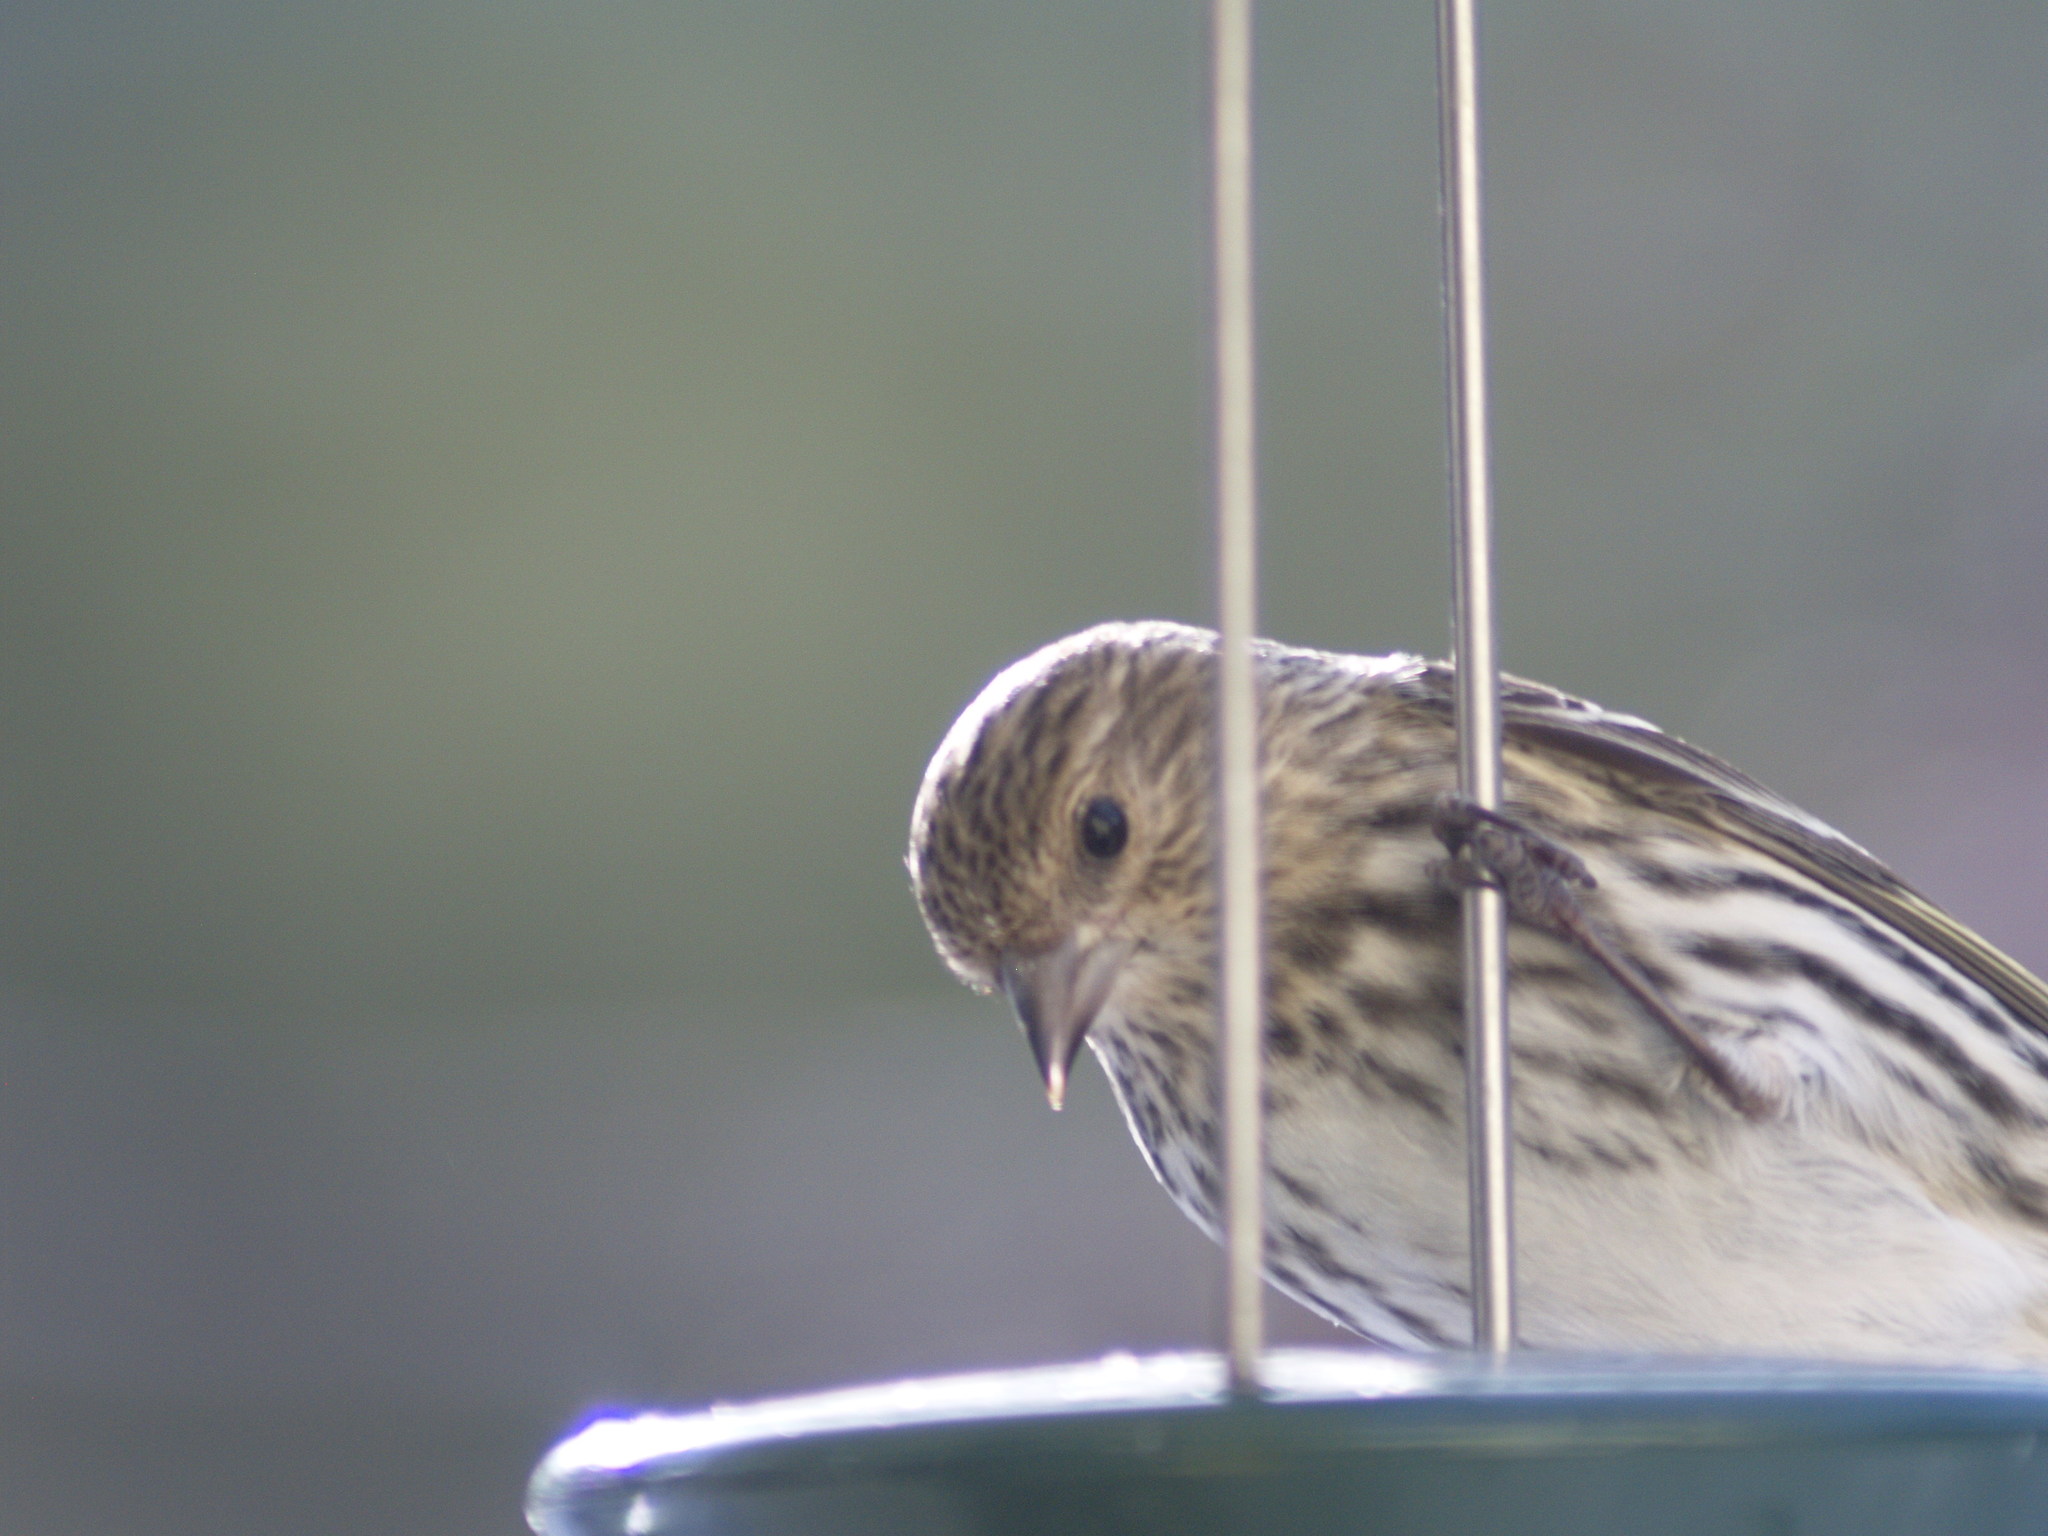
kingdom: Animalia
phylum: Chordata
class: Aves
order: Passeriformes
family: Fringillidae
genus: Spinus
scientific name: Spinus pinus
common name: Pine siskin
